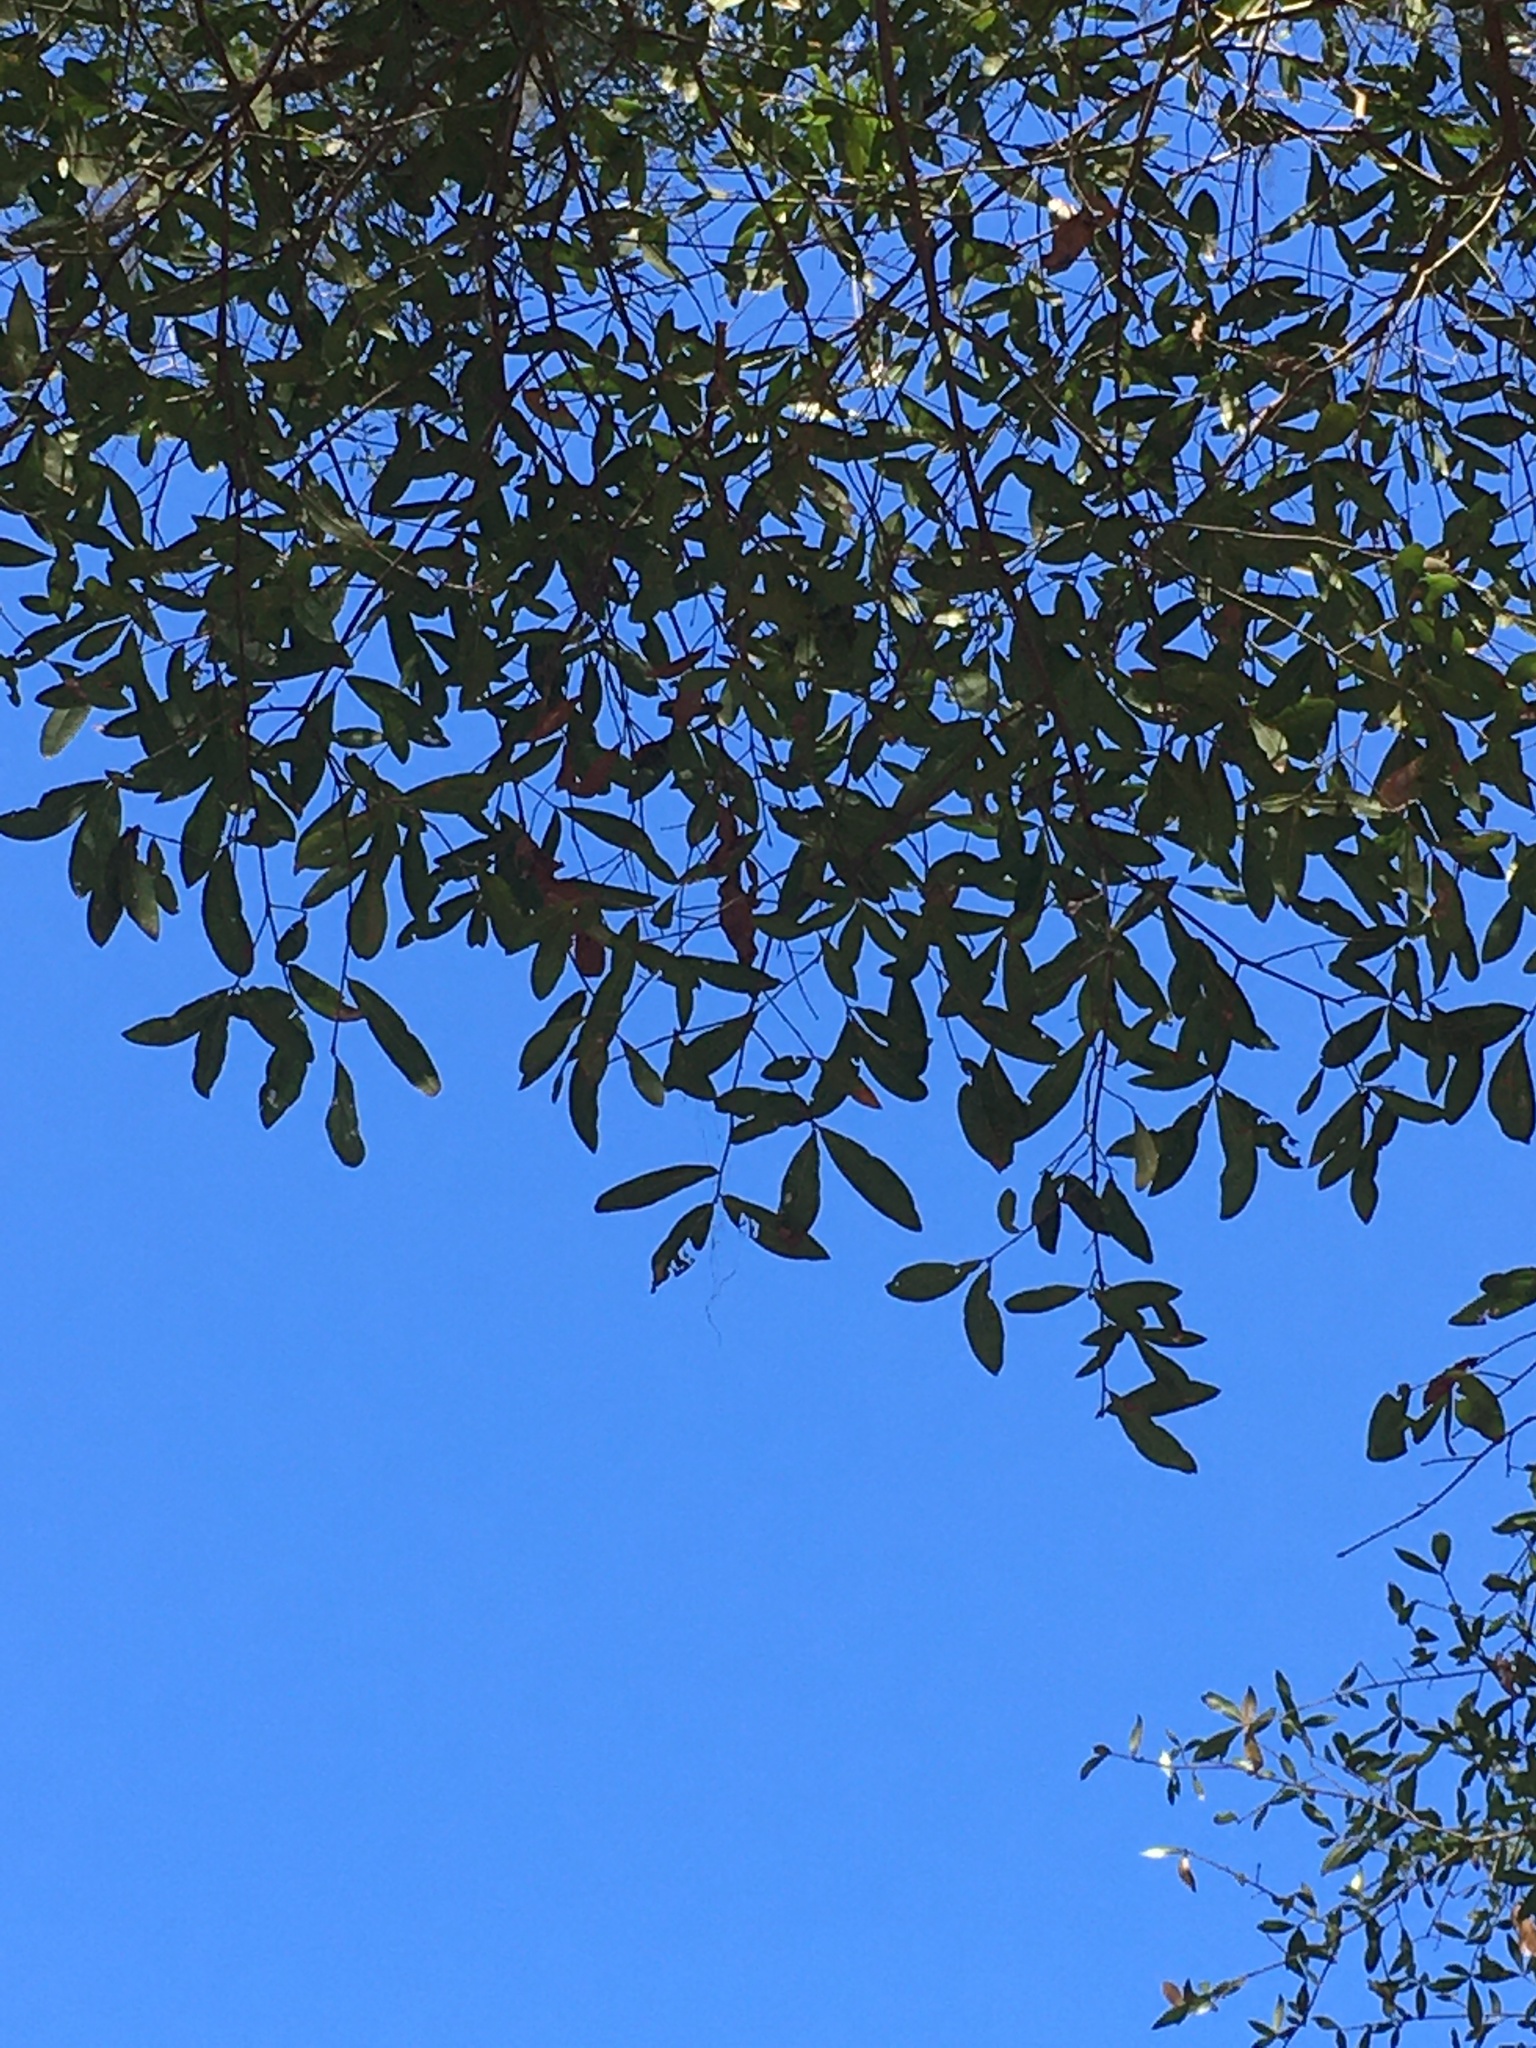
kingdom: Plantae
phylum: Tracheophyta
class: Magnoliopsida
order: Fagales
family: Fagaceae
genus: Quercus
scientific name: Quercus hemisphaerica
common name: Darlington oak
